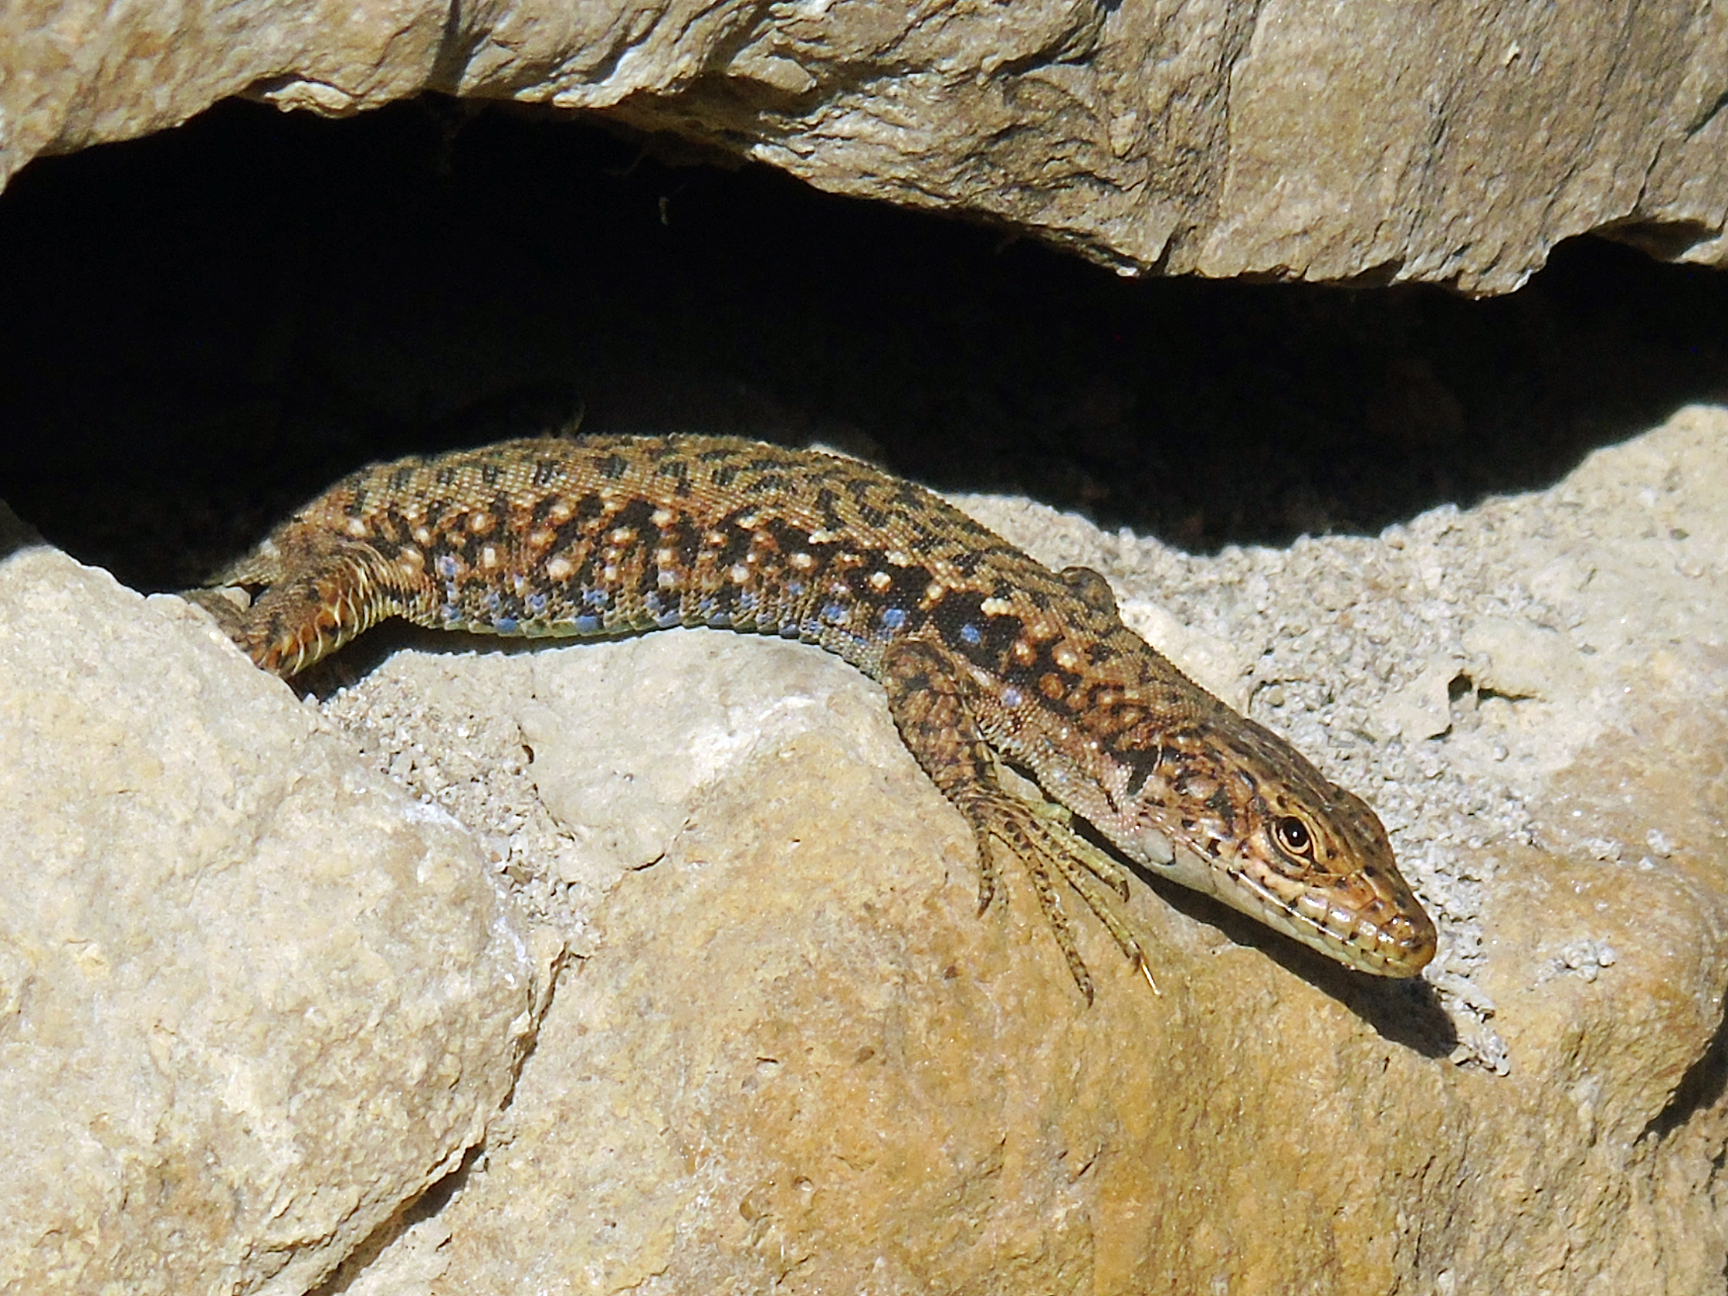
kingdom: Animalia
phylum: Chordata
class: Squamata
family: Lacertidae
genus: Darevskia
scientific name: Darevskia rudis
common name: Spiny-tailed lizard
